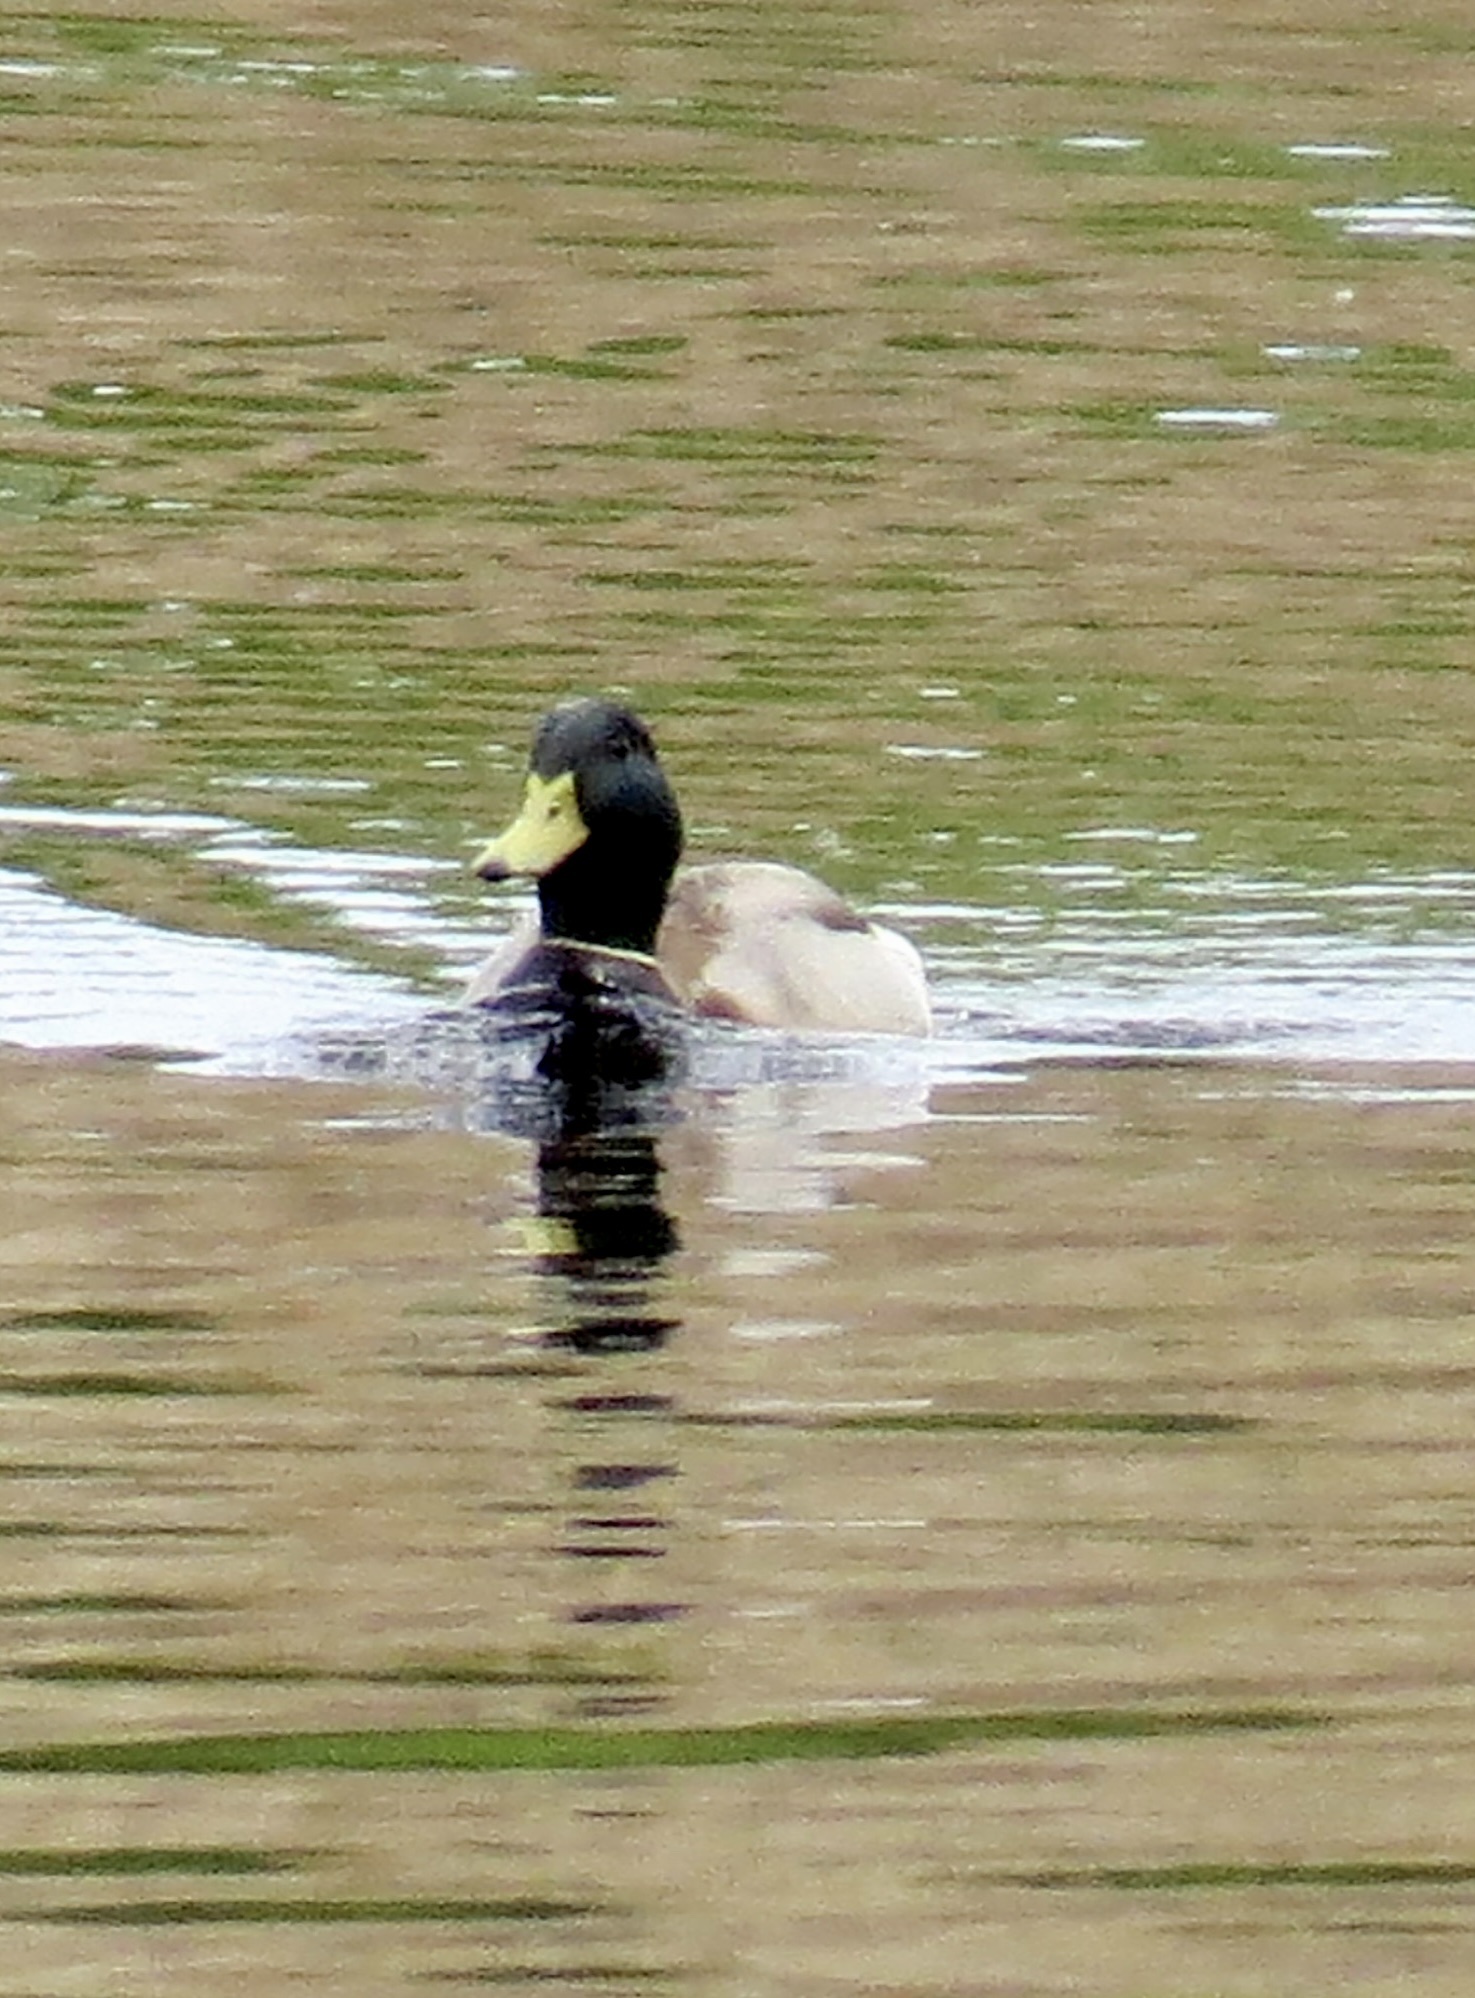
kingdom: Animalia
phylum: Chordata
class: Aves
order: Anseriformes
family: Anatidae
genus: Anas
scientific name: Anas platyrhynchos
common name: Mallard
